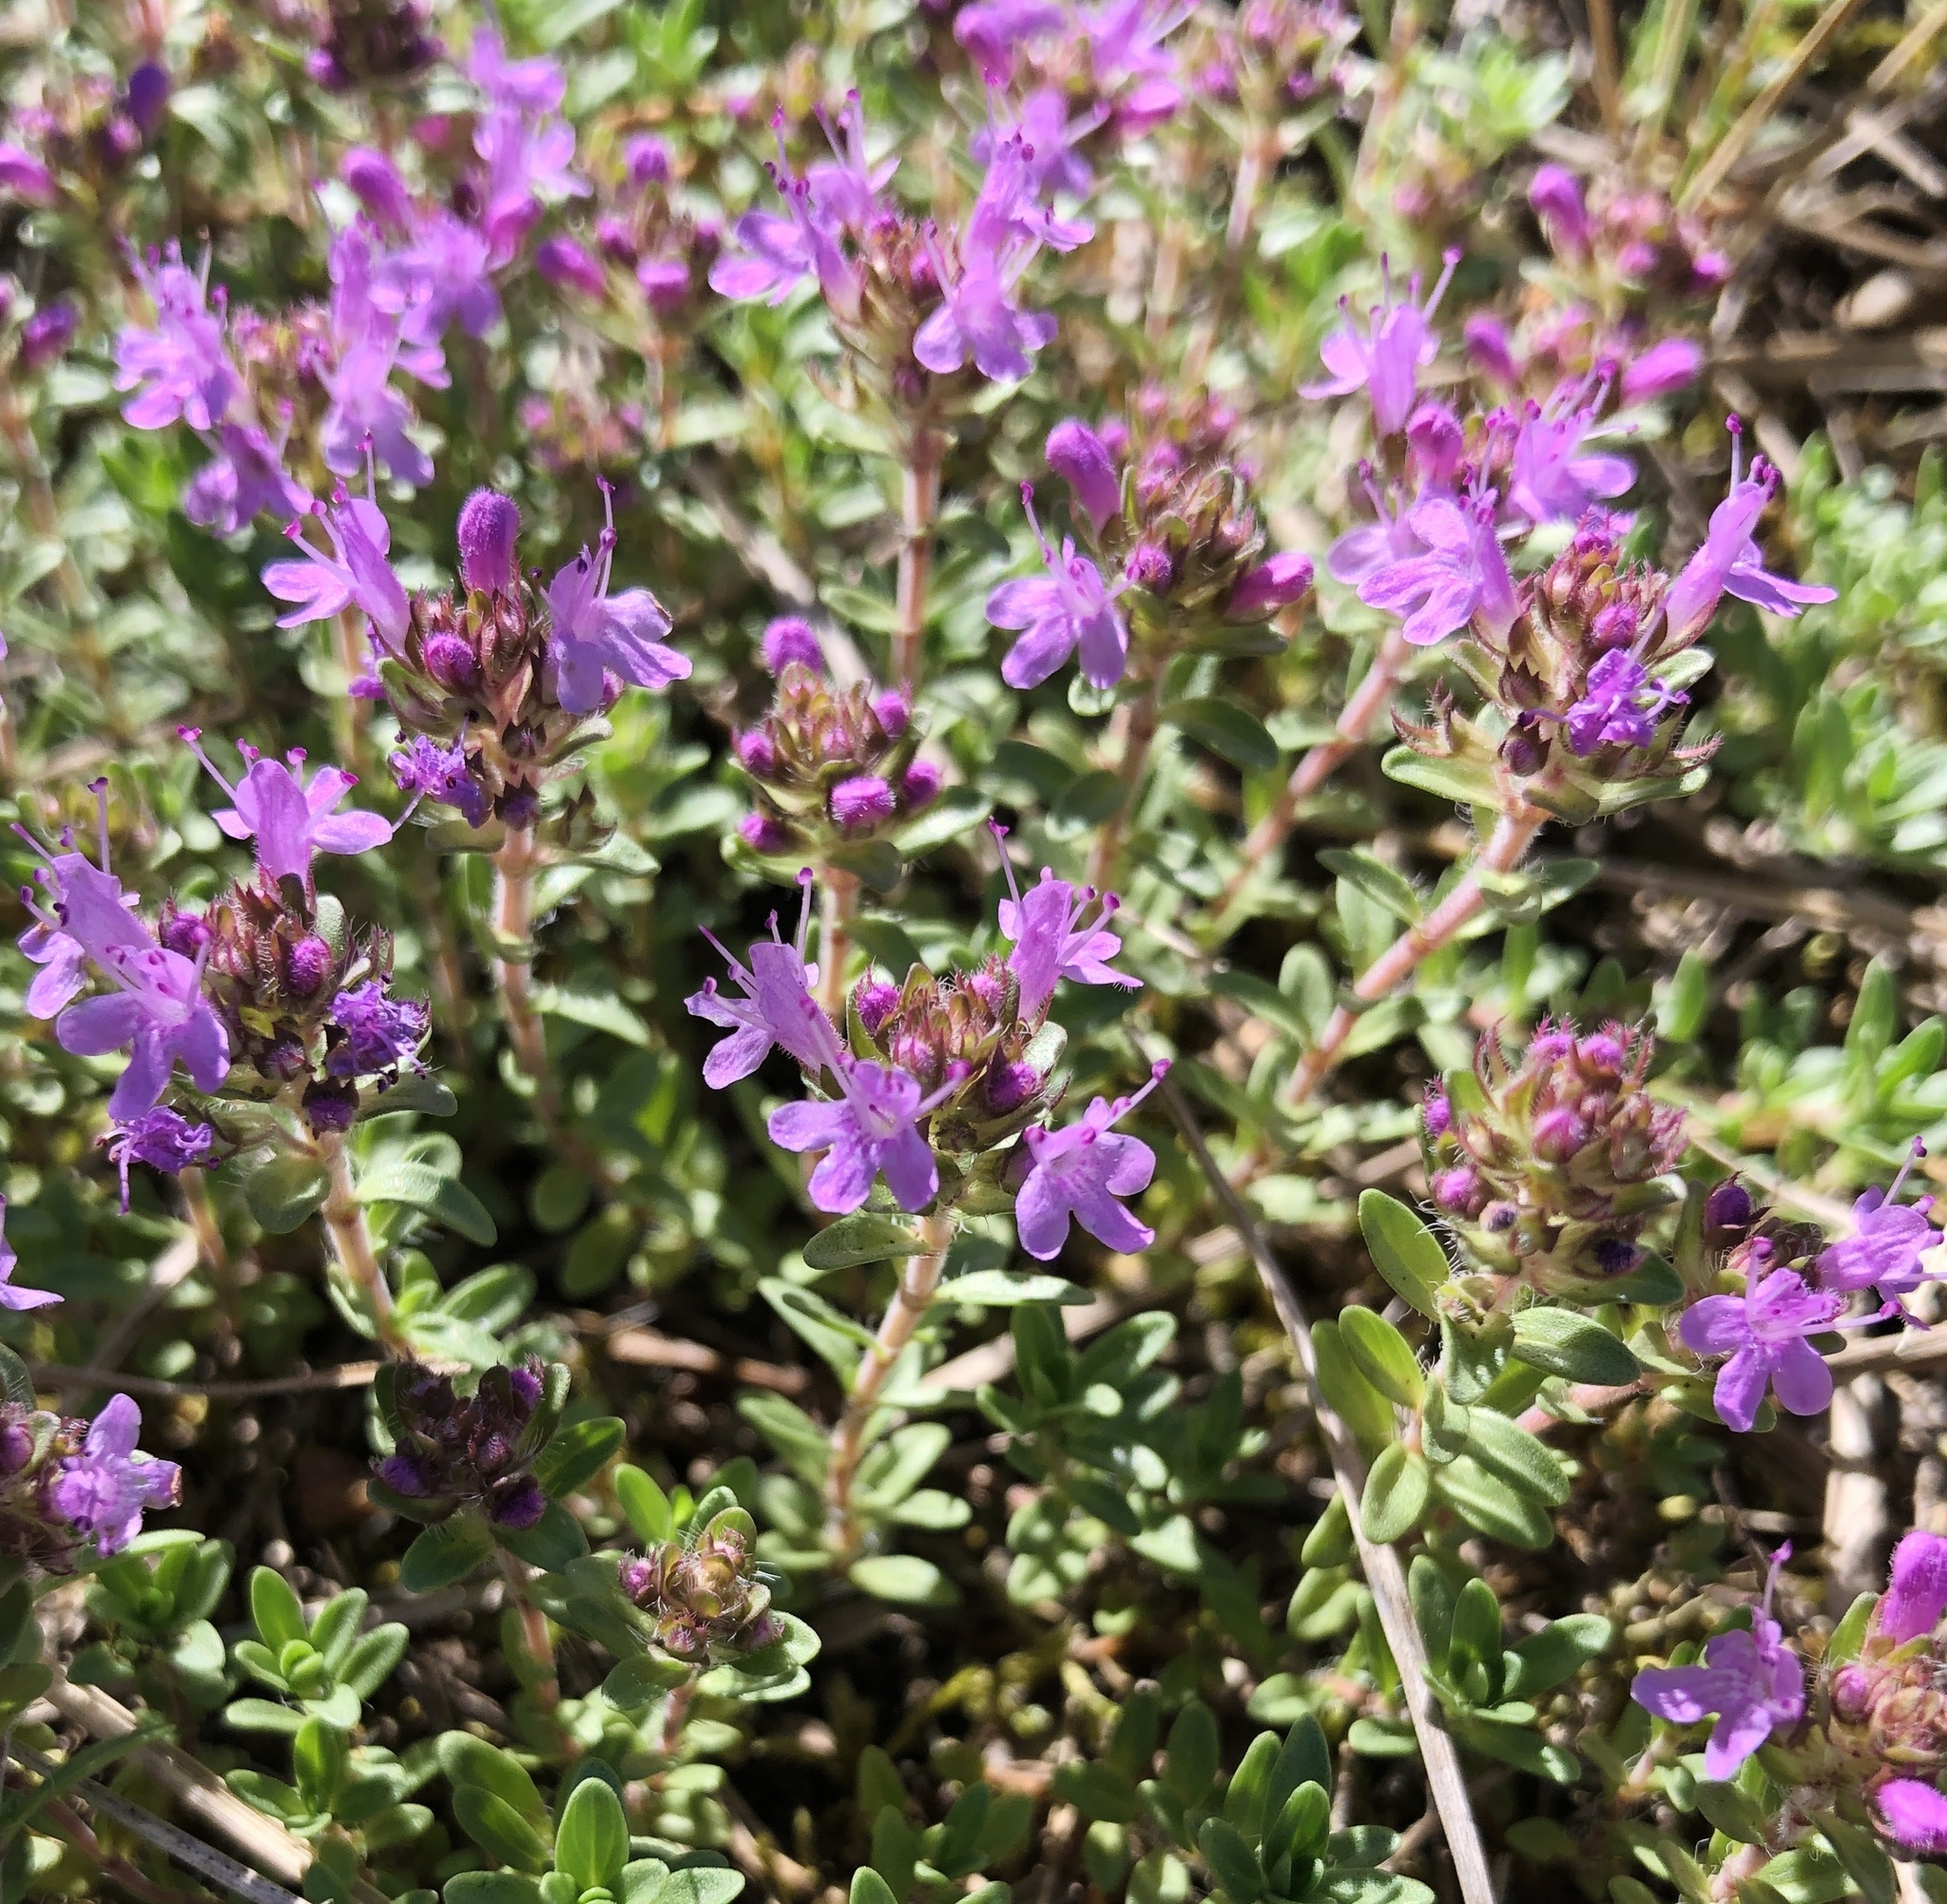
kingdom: Plantae
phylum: Tracheophyta
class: Magnoliopsida
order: Lamiales
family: Lamiaceae
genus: Thymus
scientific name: Thymus serpyllum
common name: Breckland thyme
